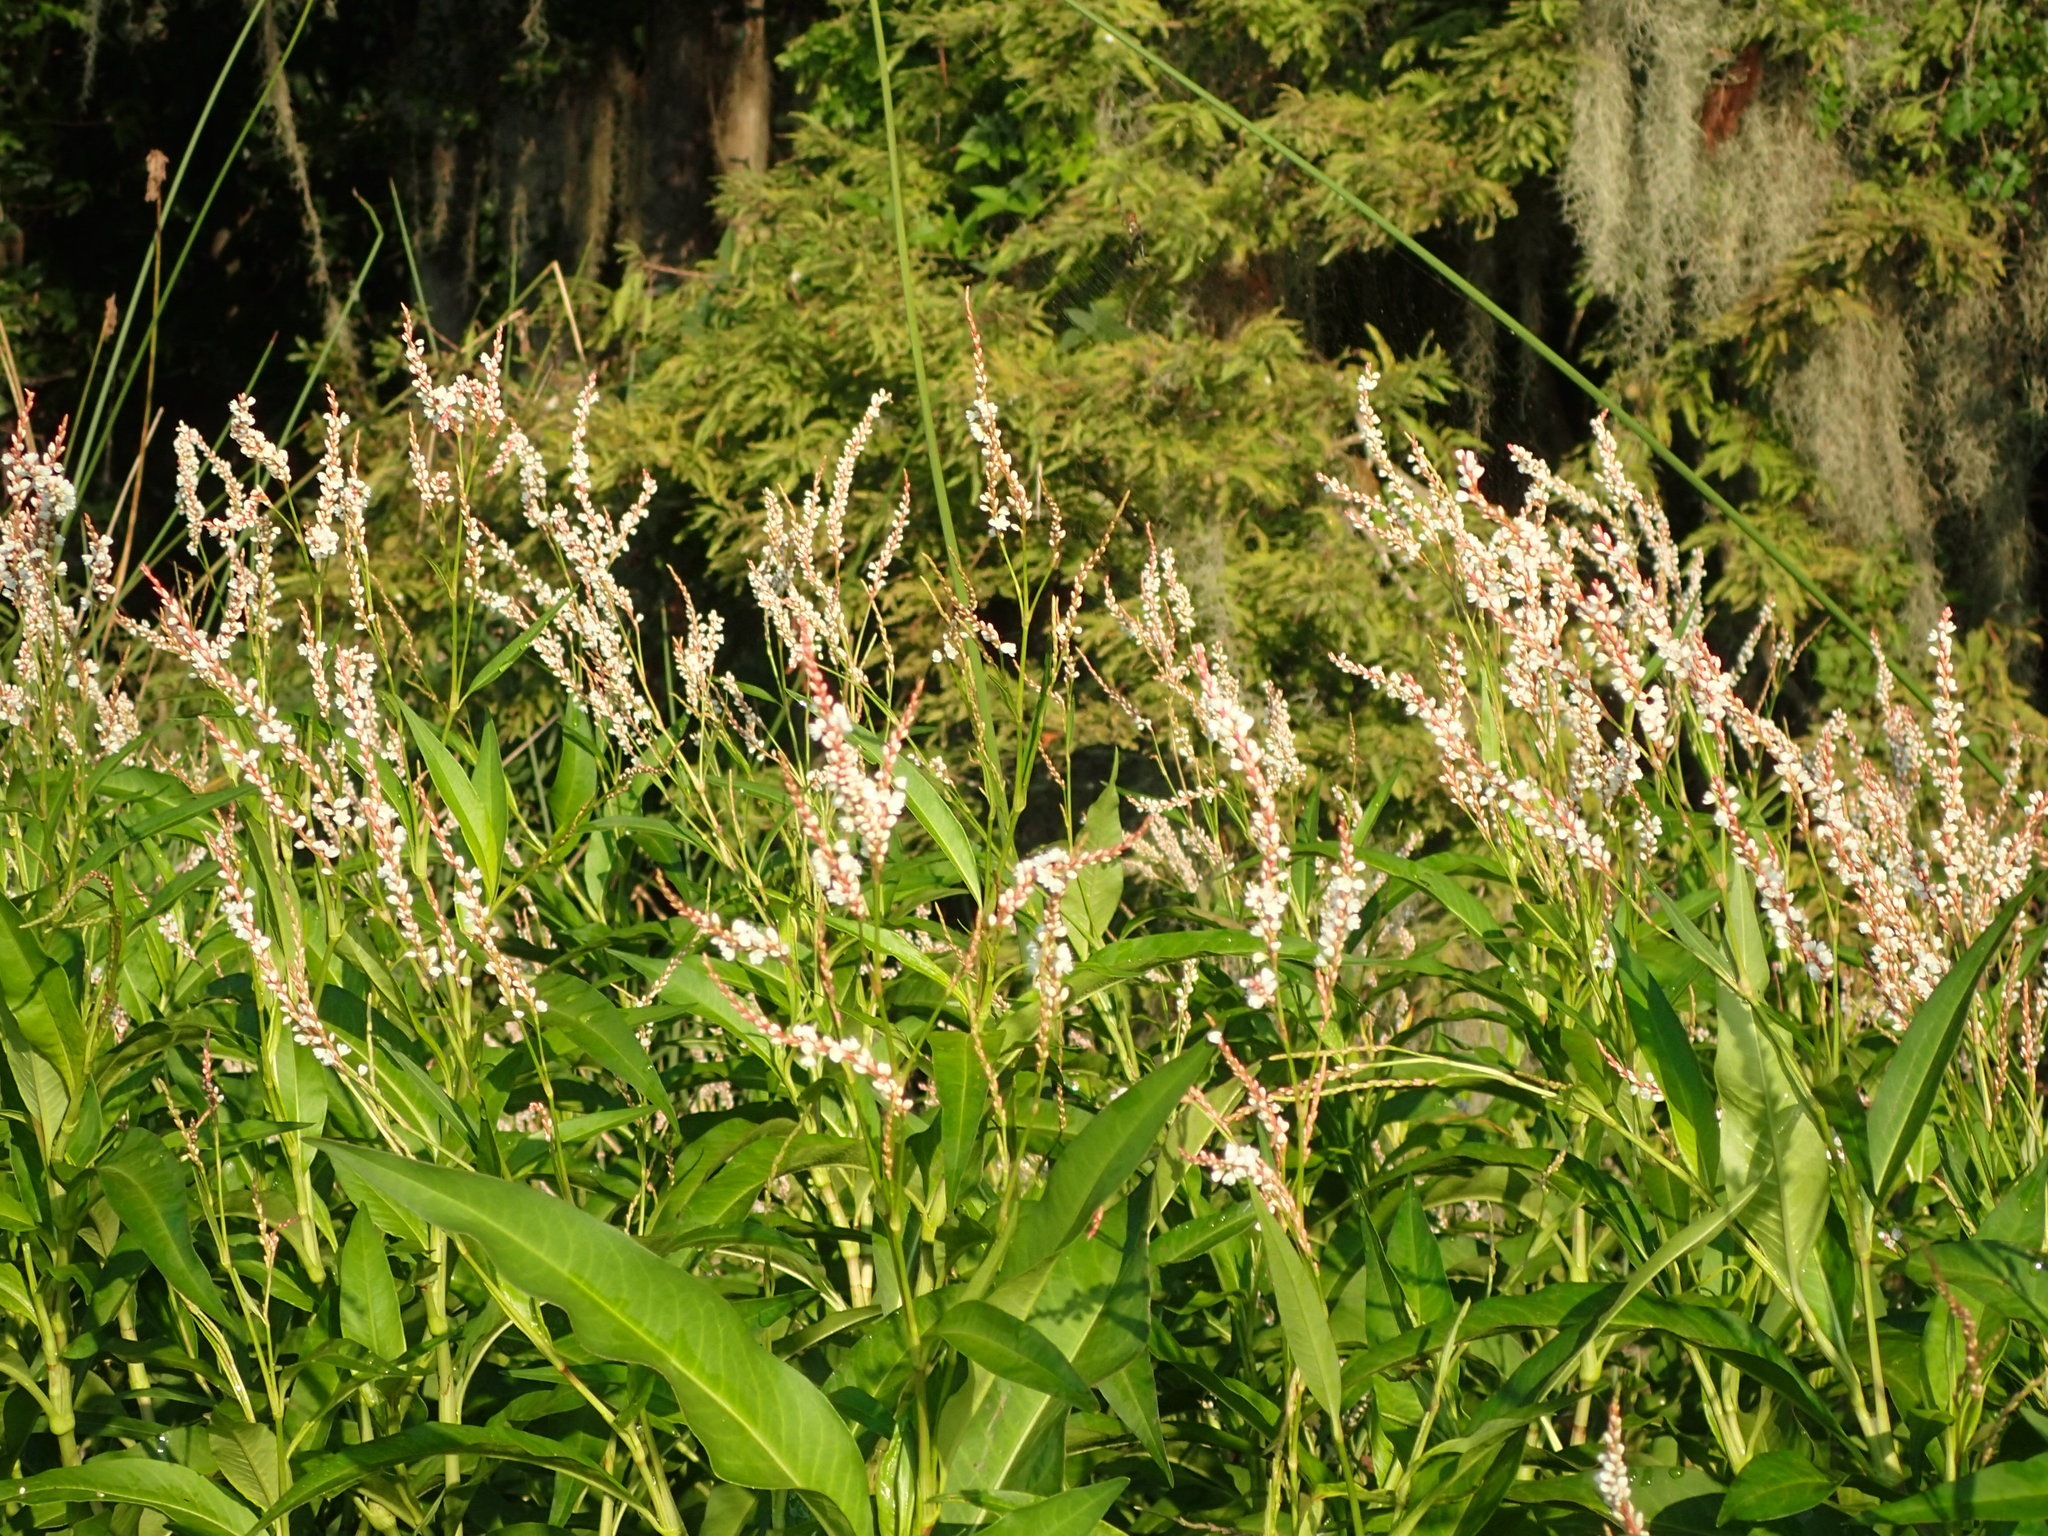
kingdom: Plantae
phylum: Tracheophyta
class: Magnoliopsida
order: Caryophyllales
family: Polygonaceae
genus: Persicaria
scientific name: Persicaria lapathifolia
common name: Curlytop knotweed
